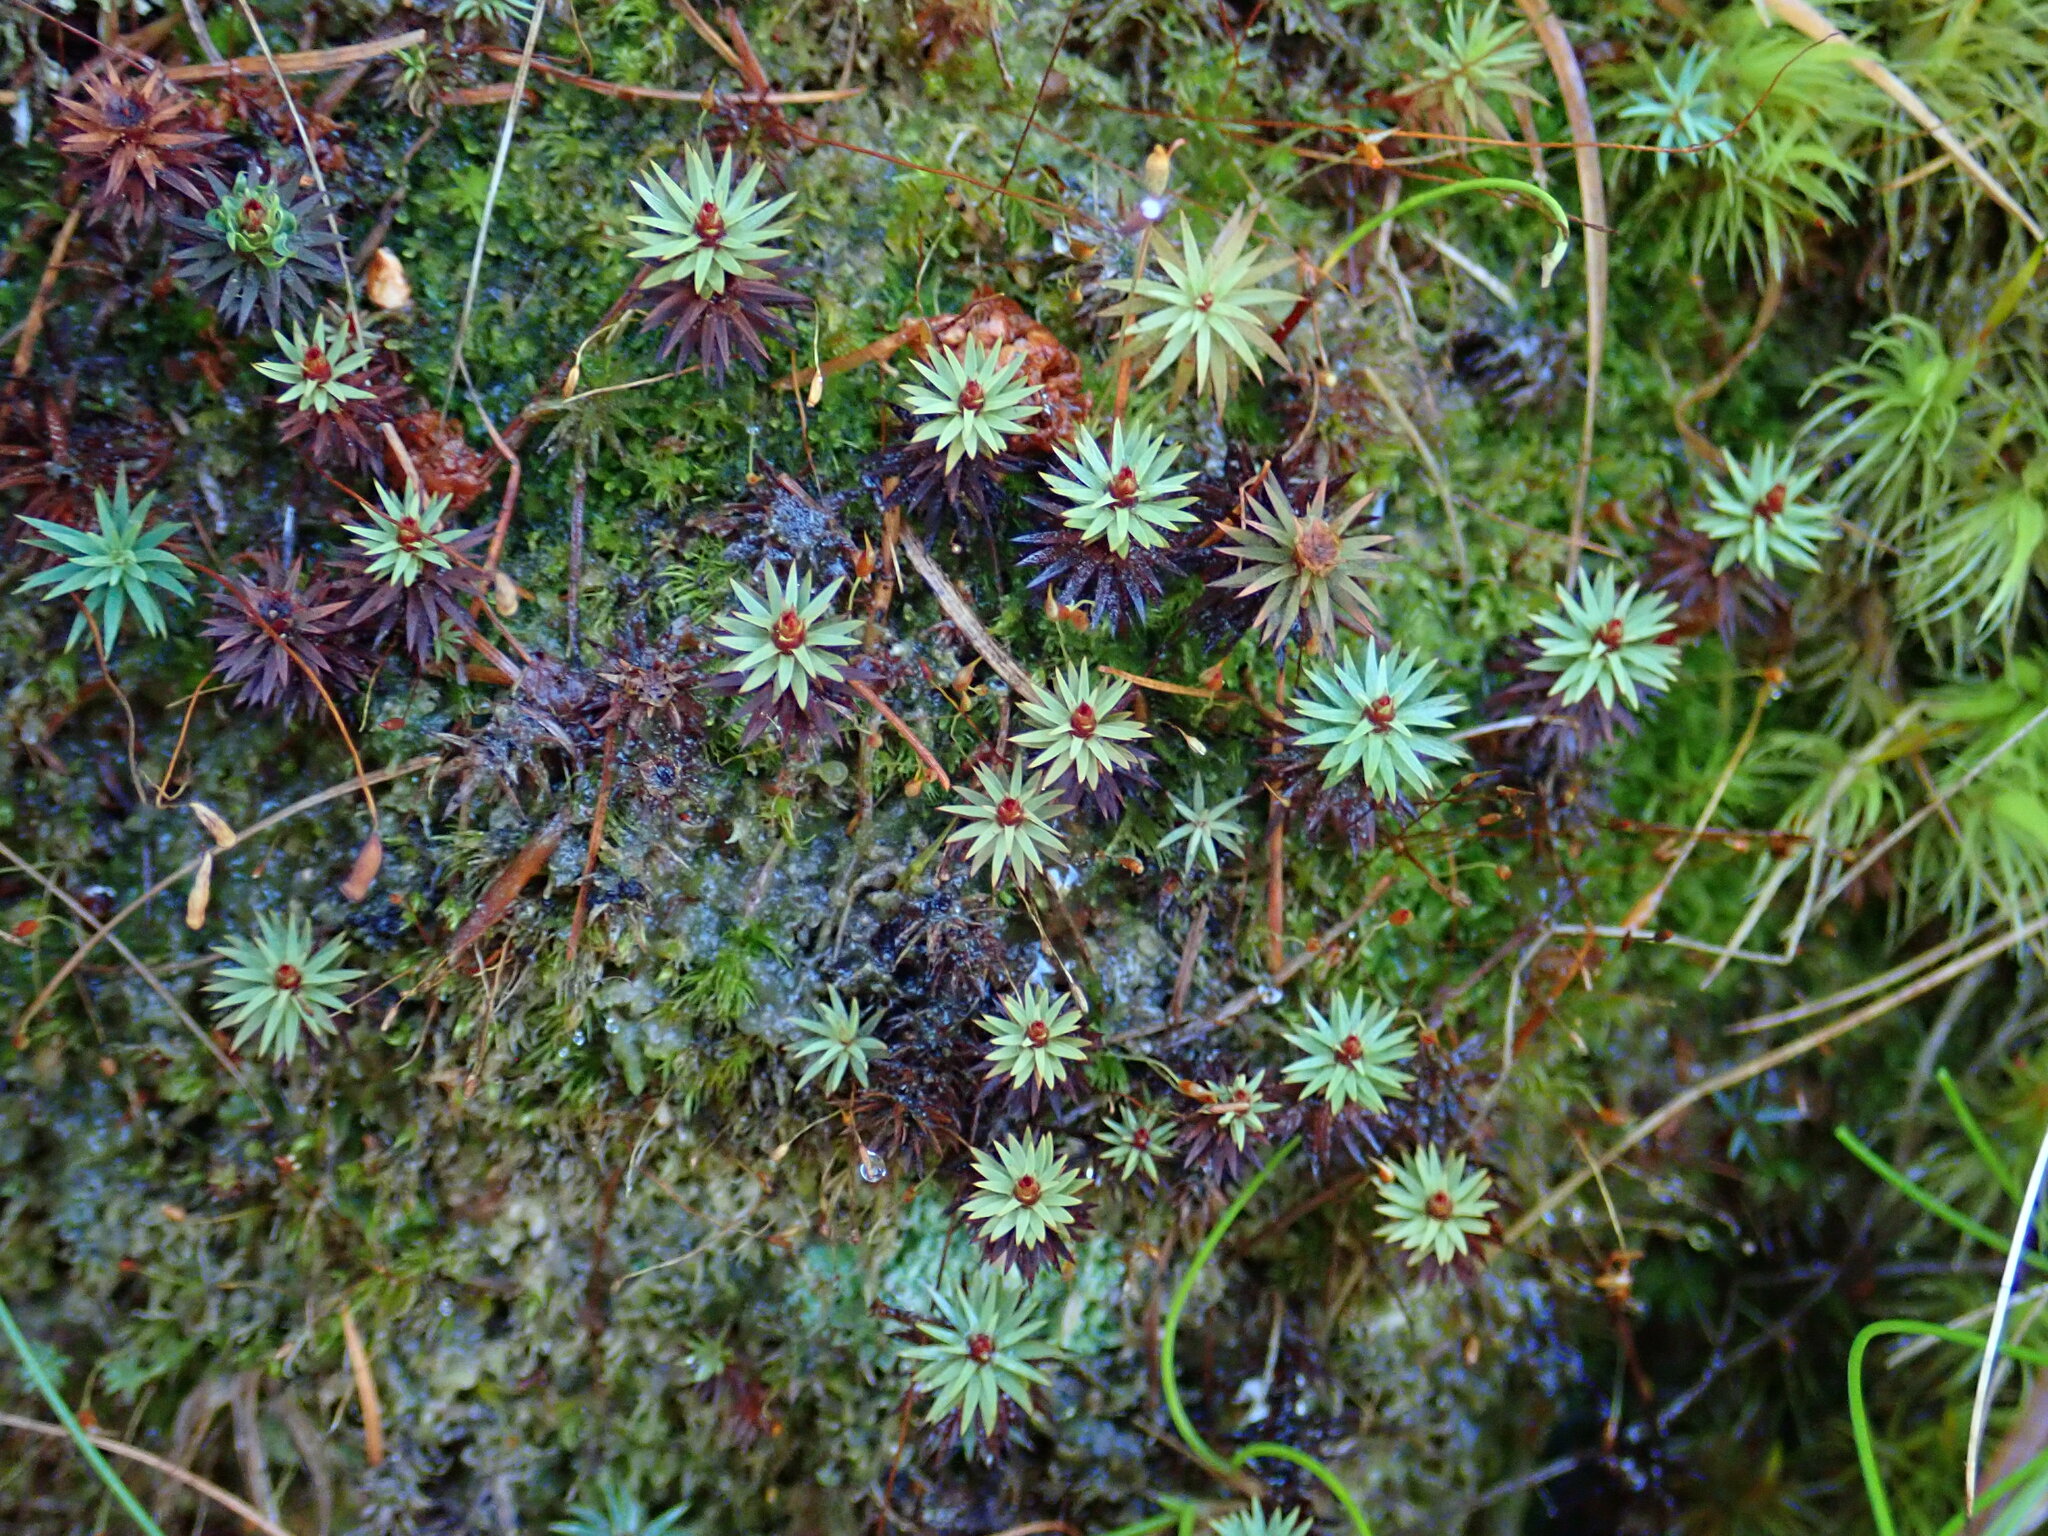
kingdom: Plantae
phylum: Bryophyta
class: Polytrichopsida
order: Polytrichales
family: Polytrichaceae
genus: Pogonatum
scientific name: Pogonatum urnigerum
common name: Urn hair moss
